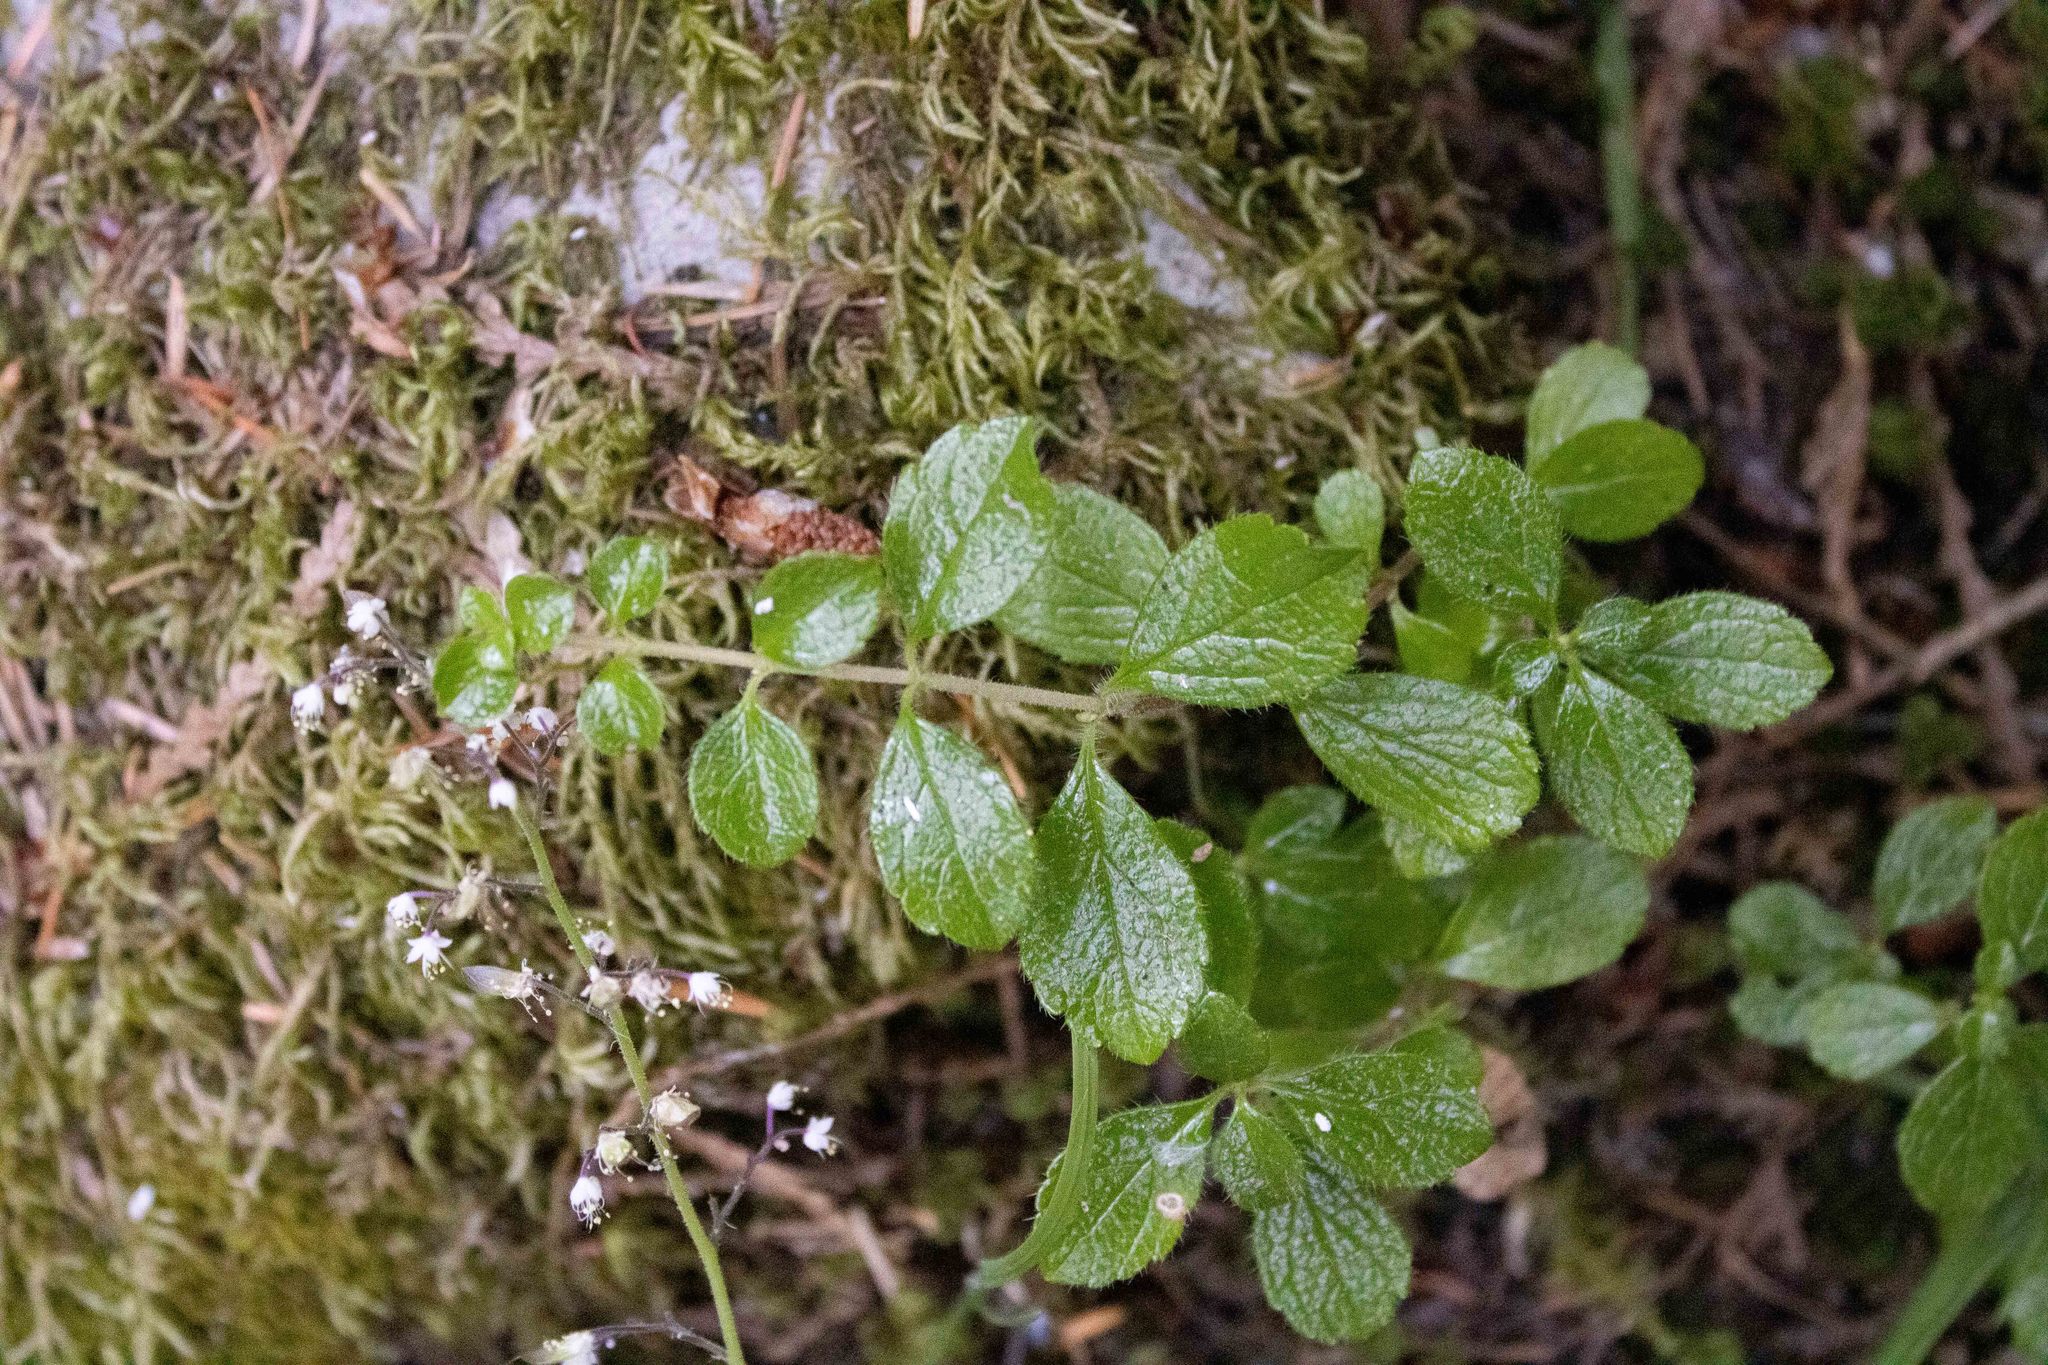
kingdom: Plantae
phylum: Tracheophyta
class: Magnoliopsida
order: Dipsacales
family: Caprifoliaceae
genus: Linnaea
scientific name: Linnaea borealis
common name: Twinflower
